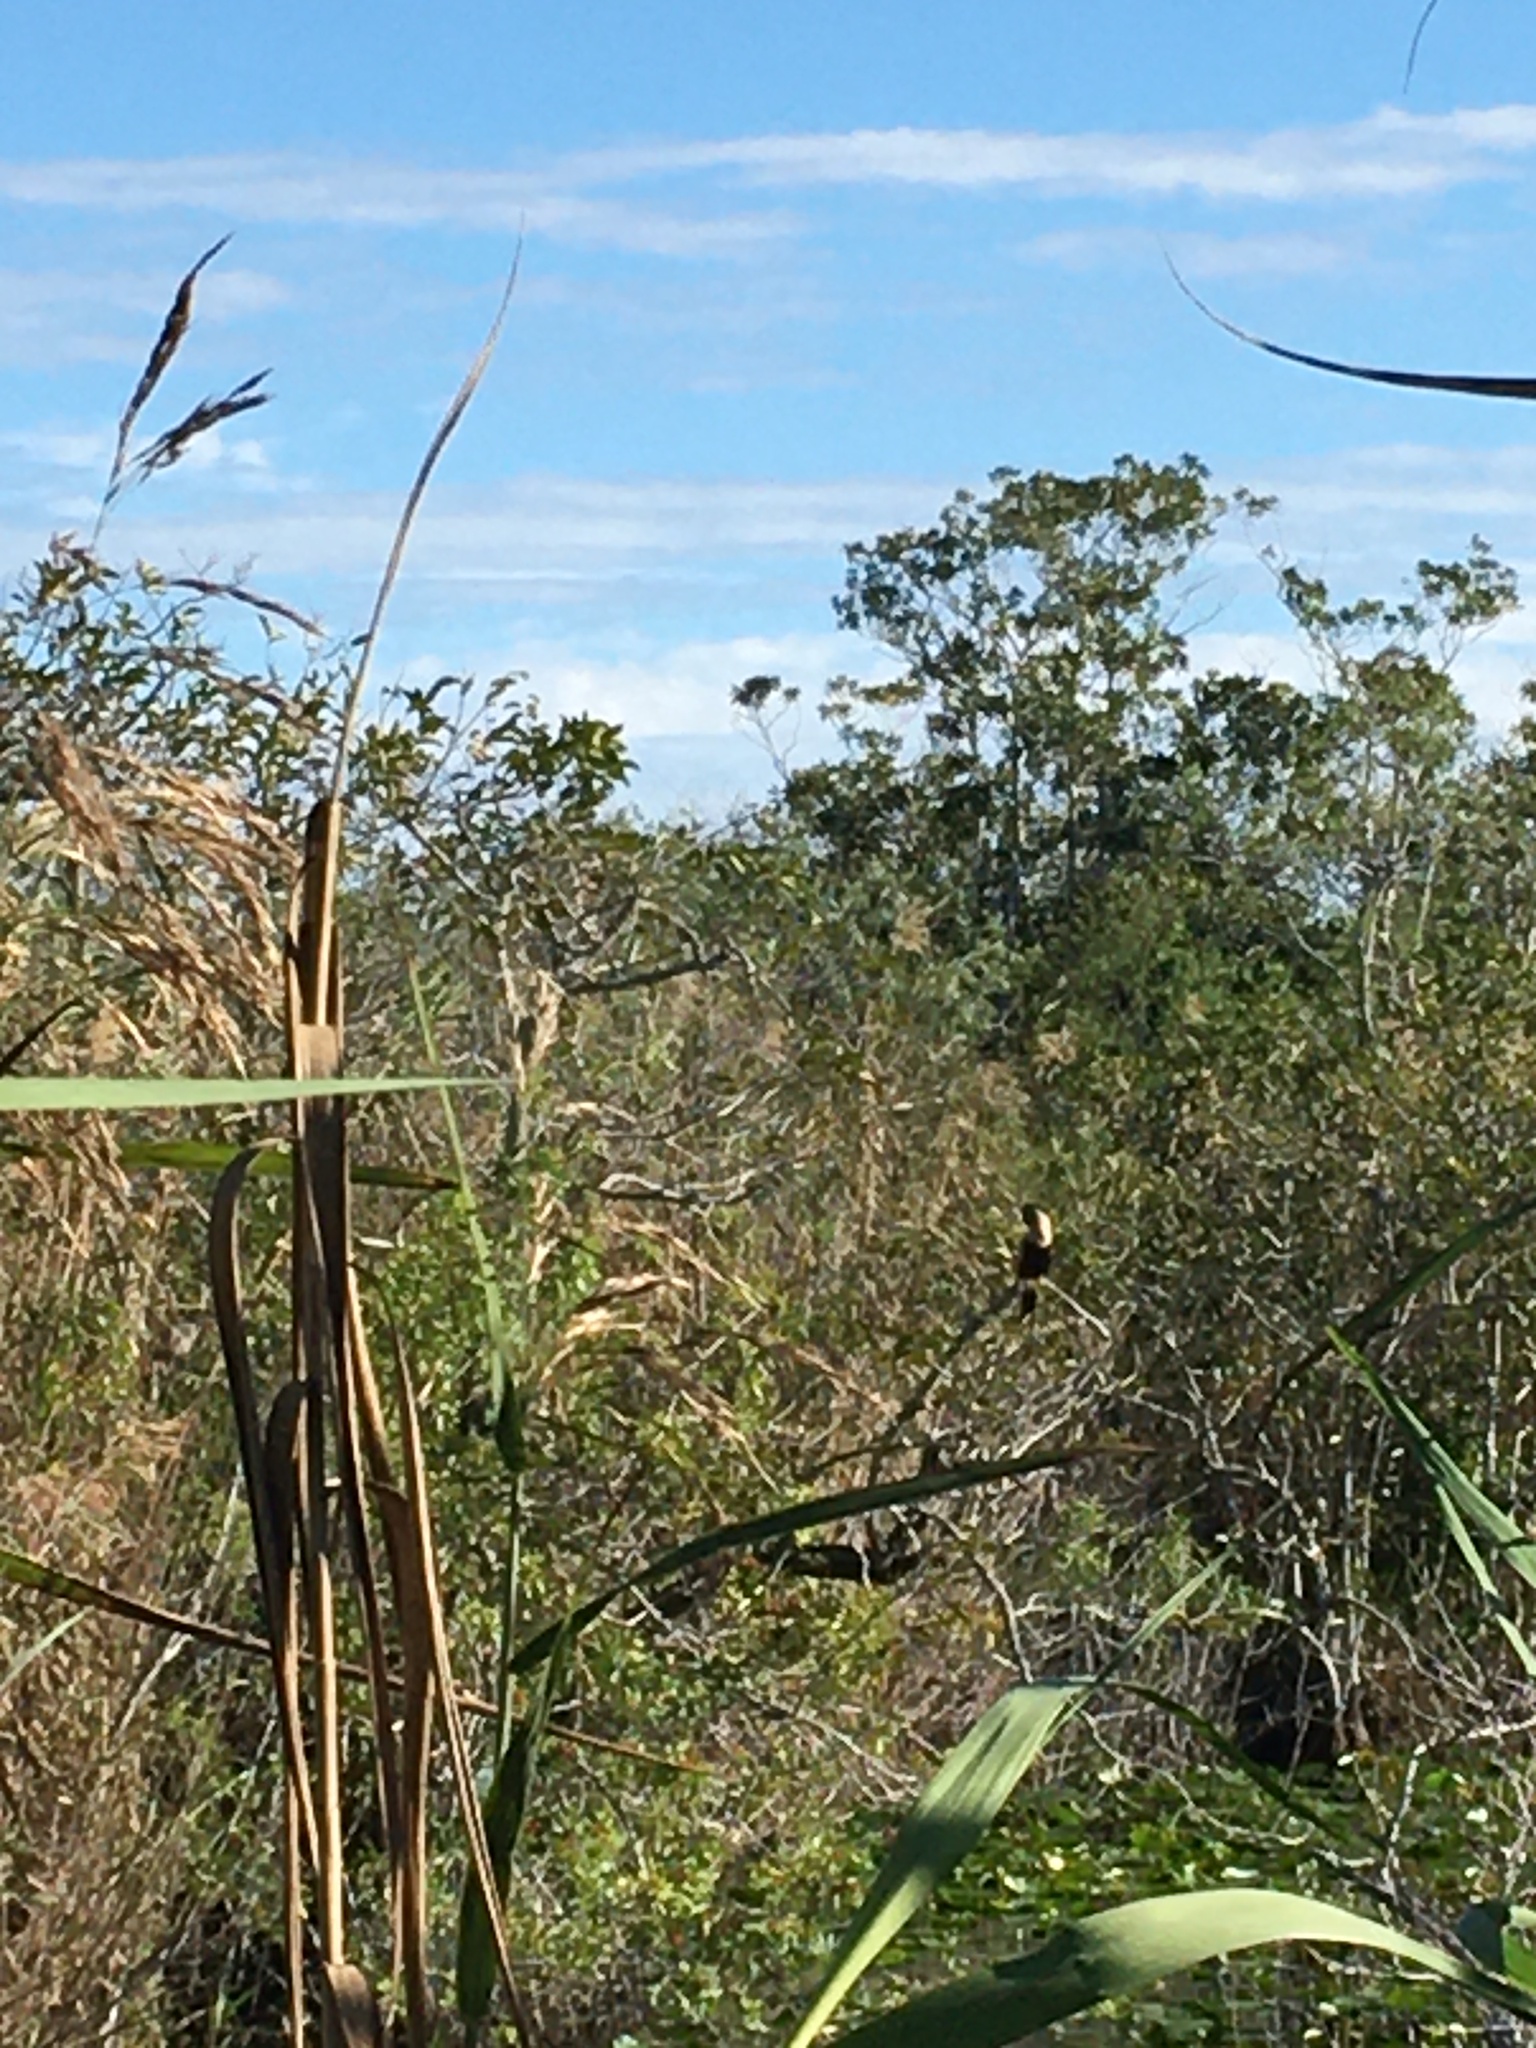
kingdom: Animalia
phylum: Chordata
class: Aves
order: Suliformes
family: Anhingidae
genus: Anhinga
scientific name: Anhinga anhinga
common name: Anhinga
